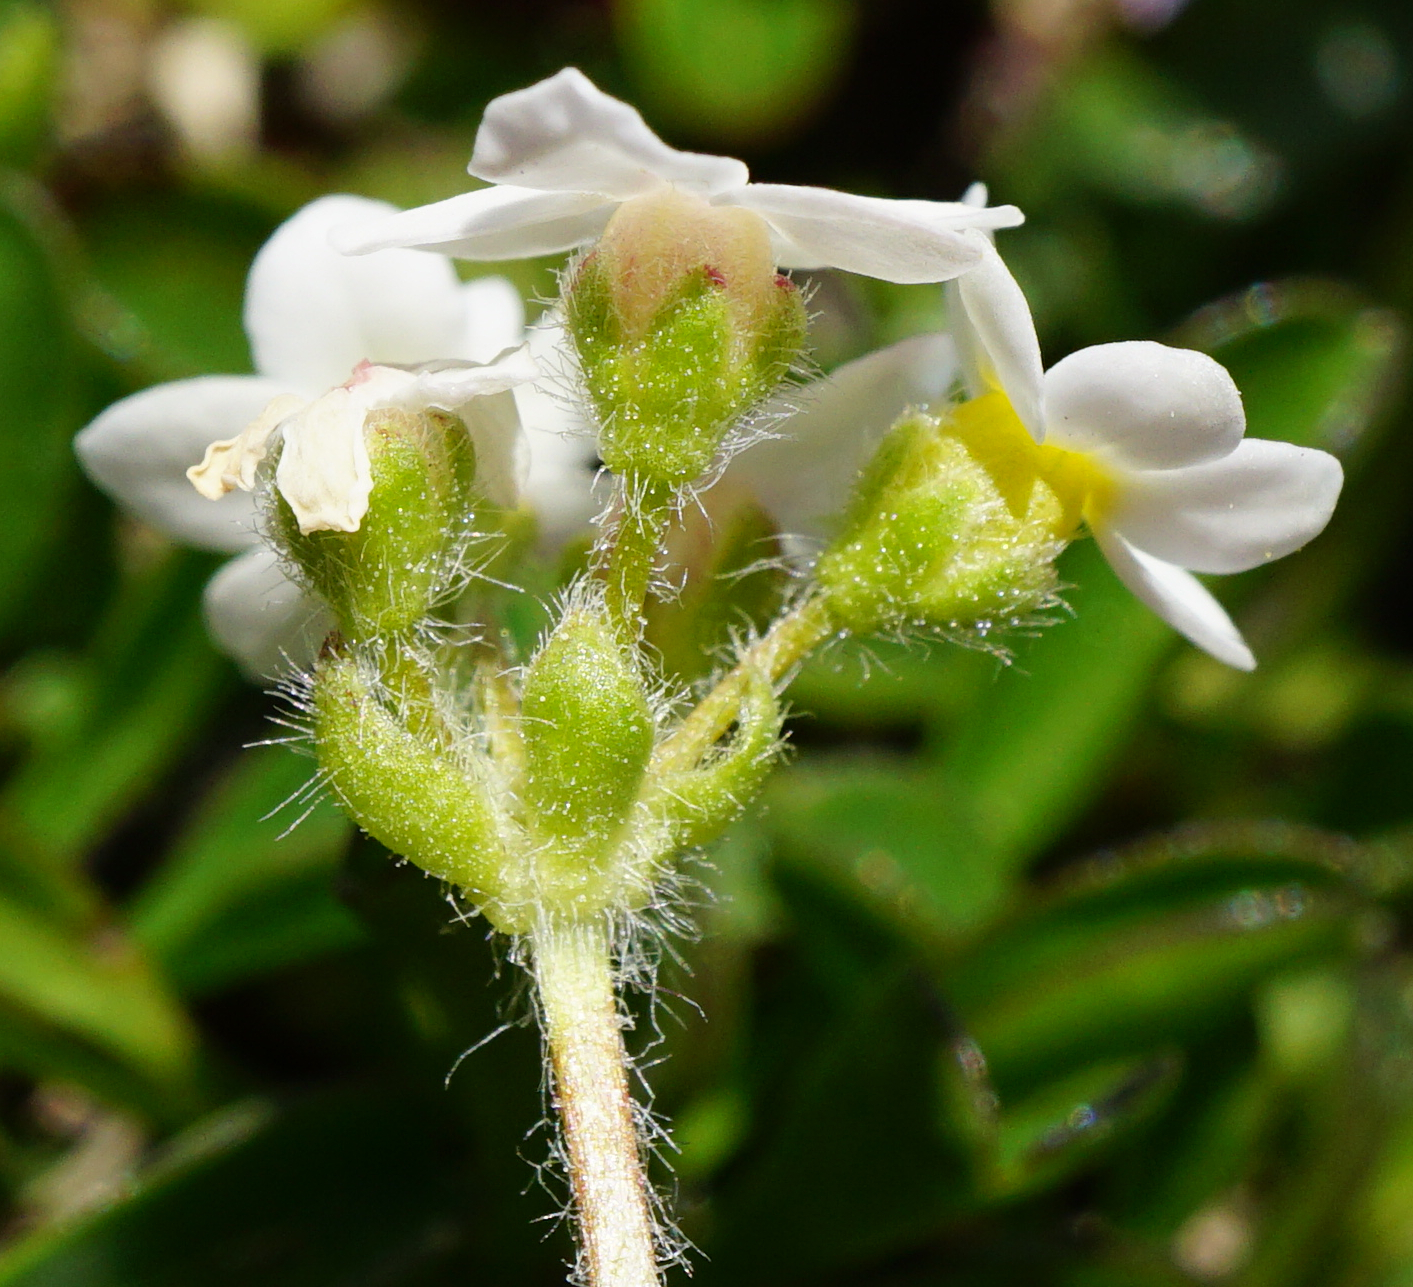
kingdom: Plantae
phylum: Tracheophyta
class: Magnoliopsida
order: Ericales
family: Primulaceae
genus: Androsace
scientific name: Androsace chamaejasme
